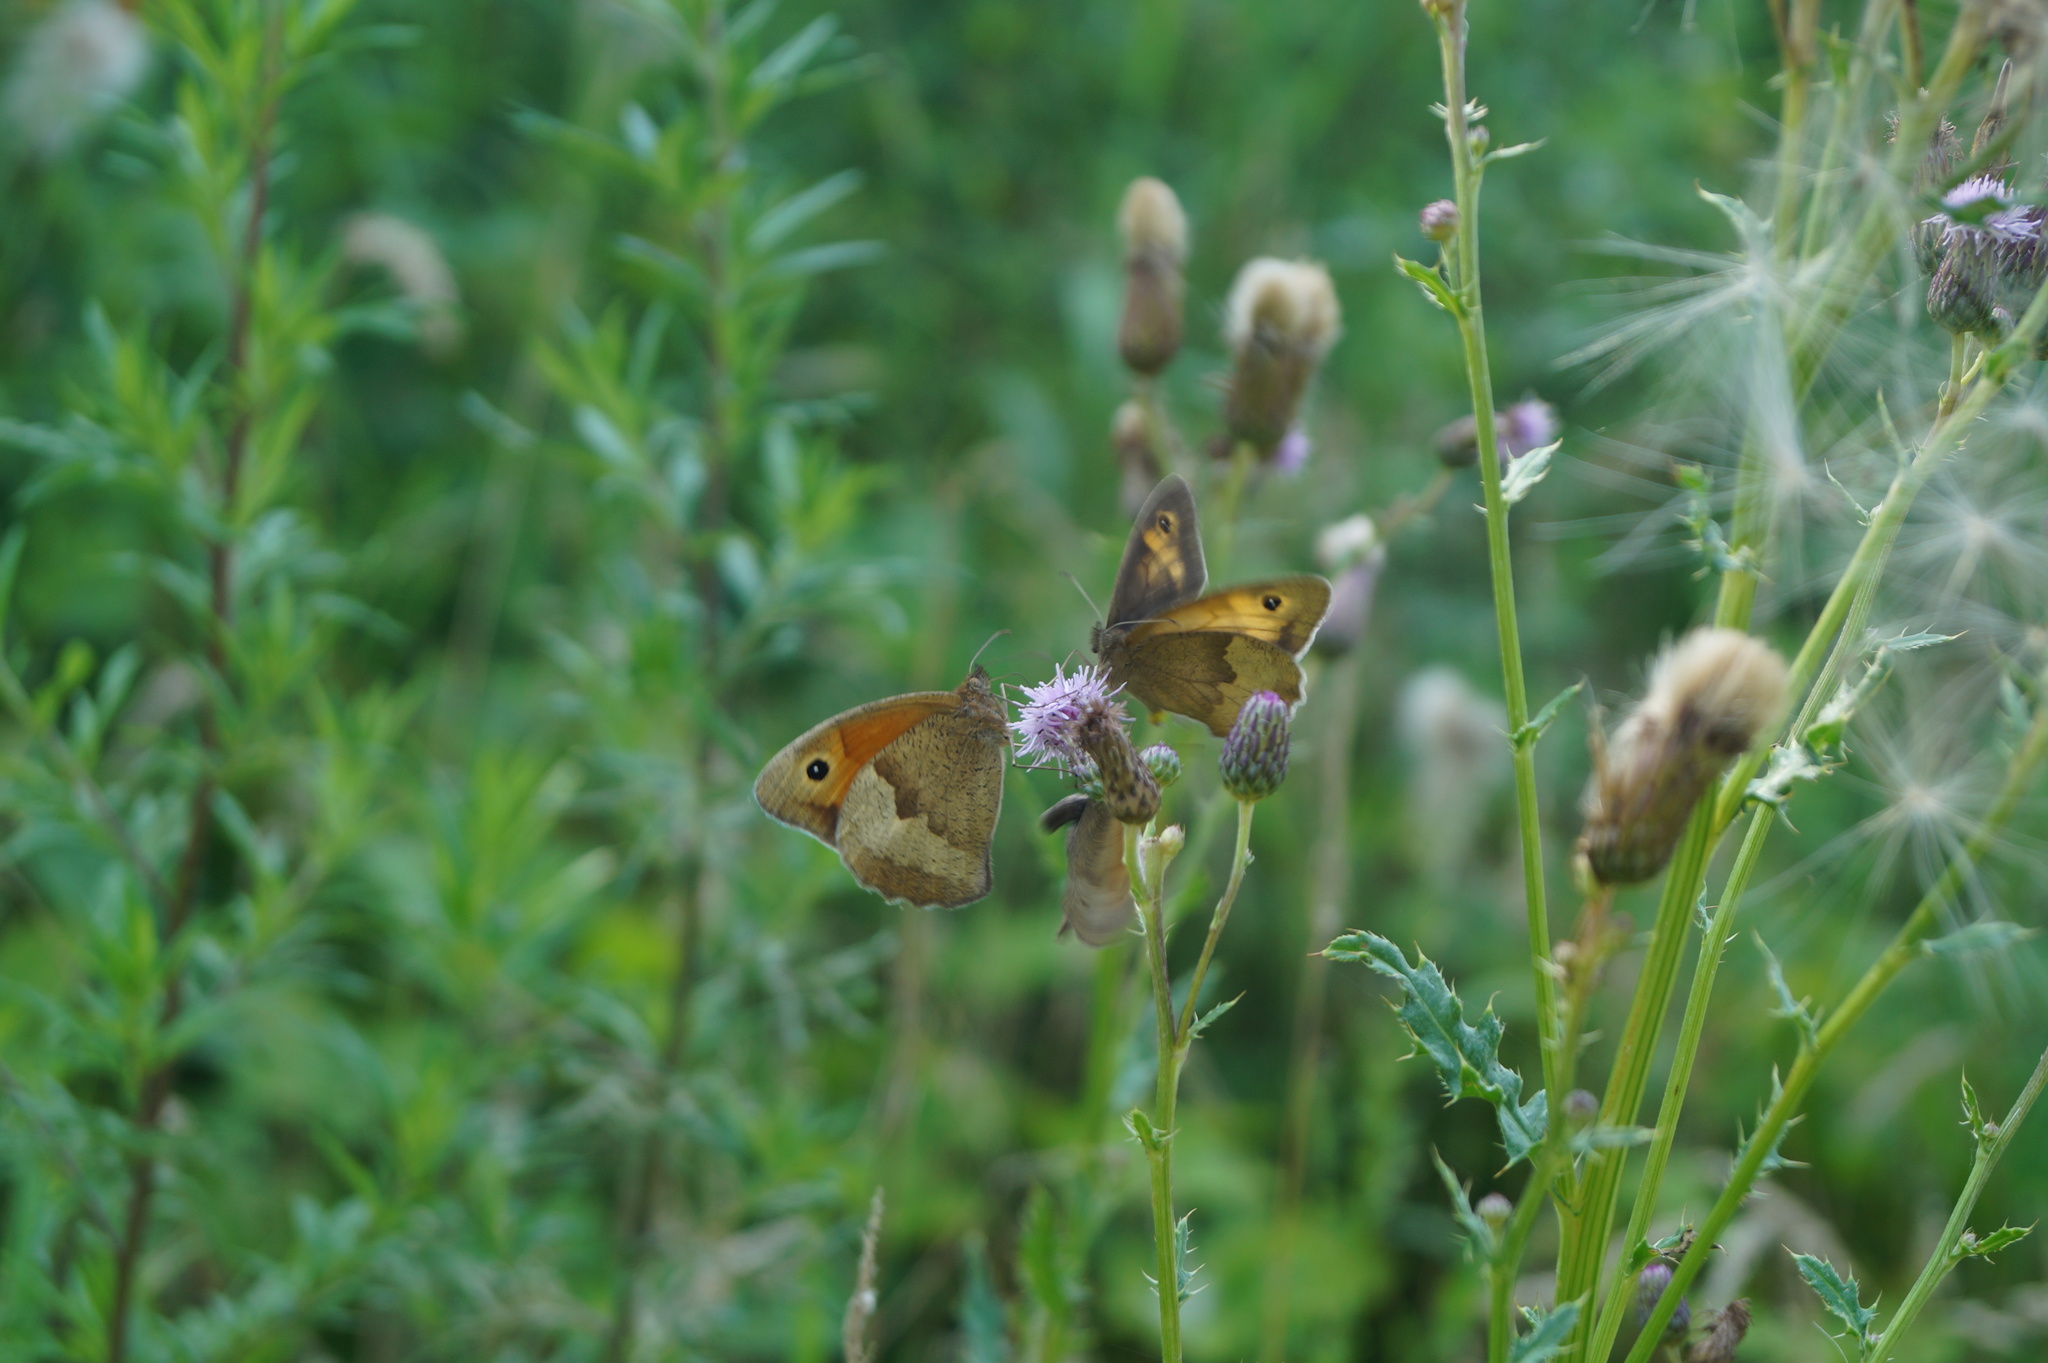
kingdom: Animalia
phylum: Arthropoda
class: Insecta
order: Lepidoptera
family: Nymphalidae
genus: Maniola
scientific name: Maniola jurtina
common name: Meadow brown
